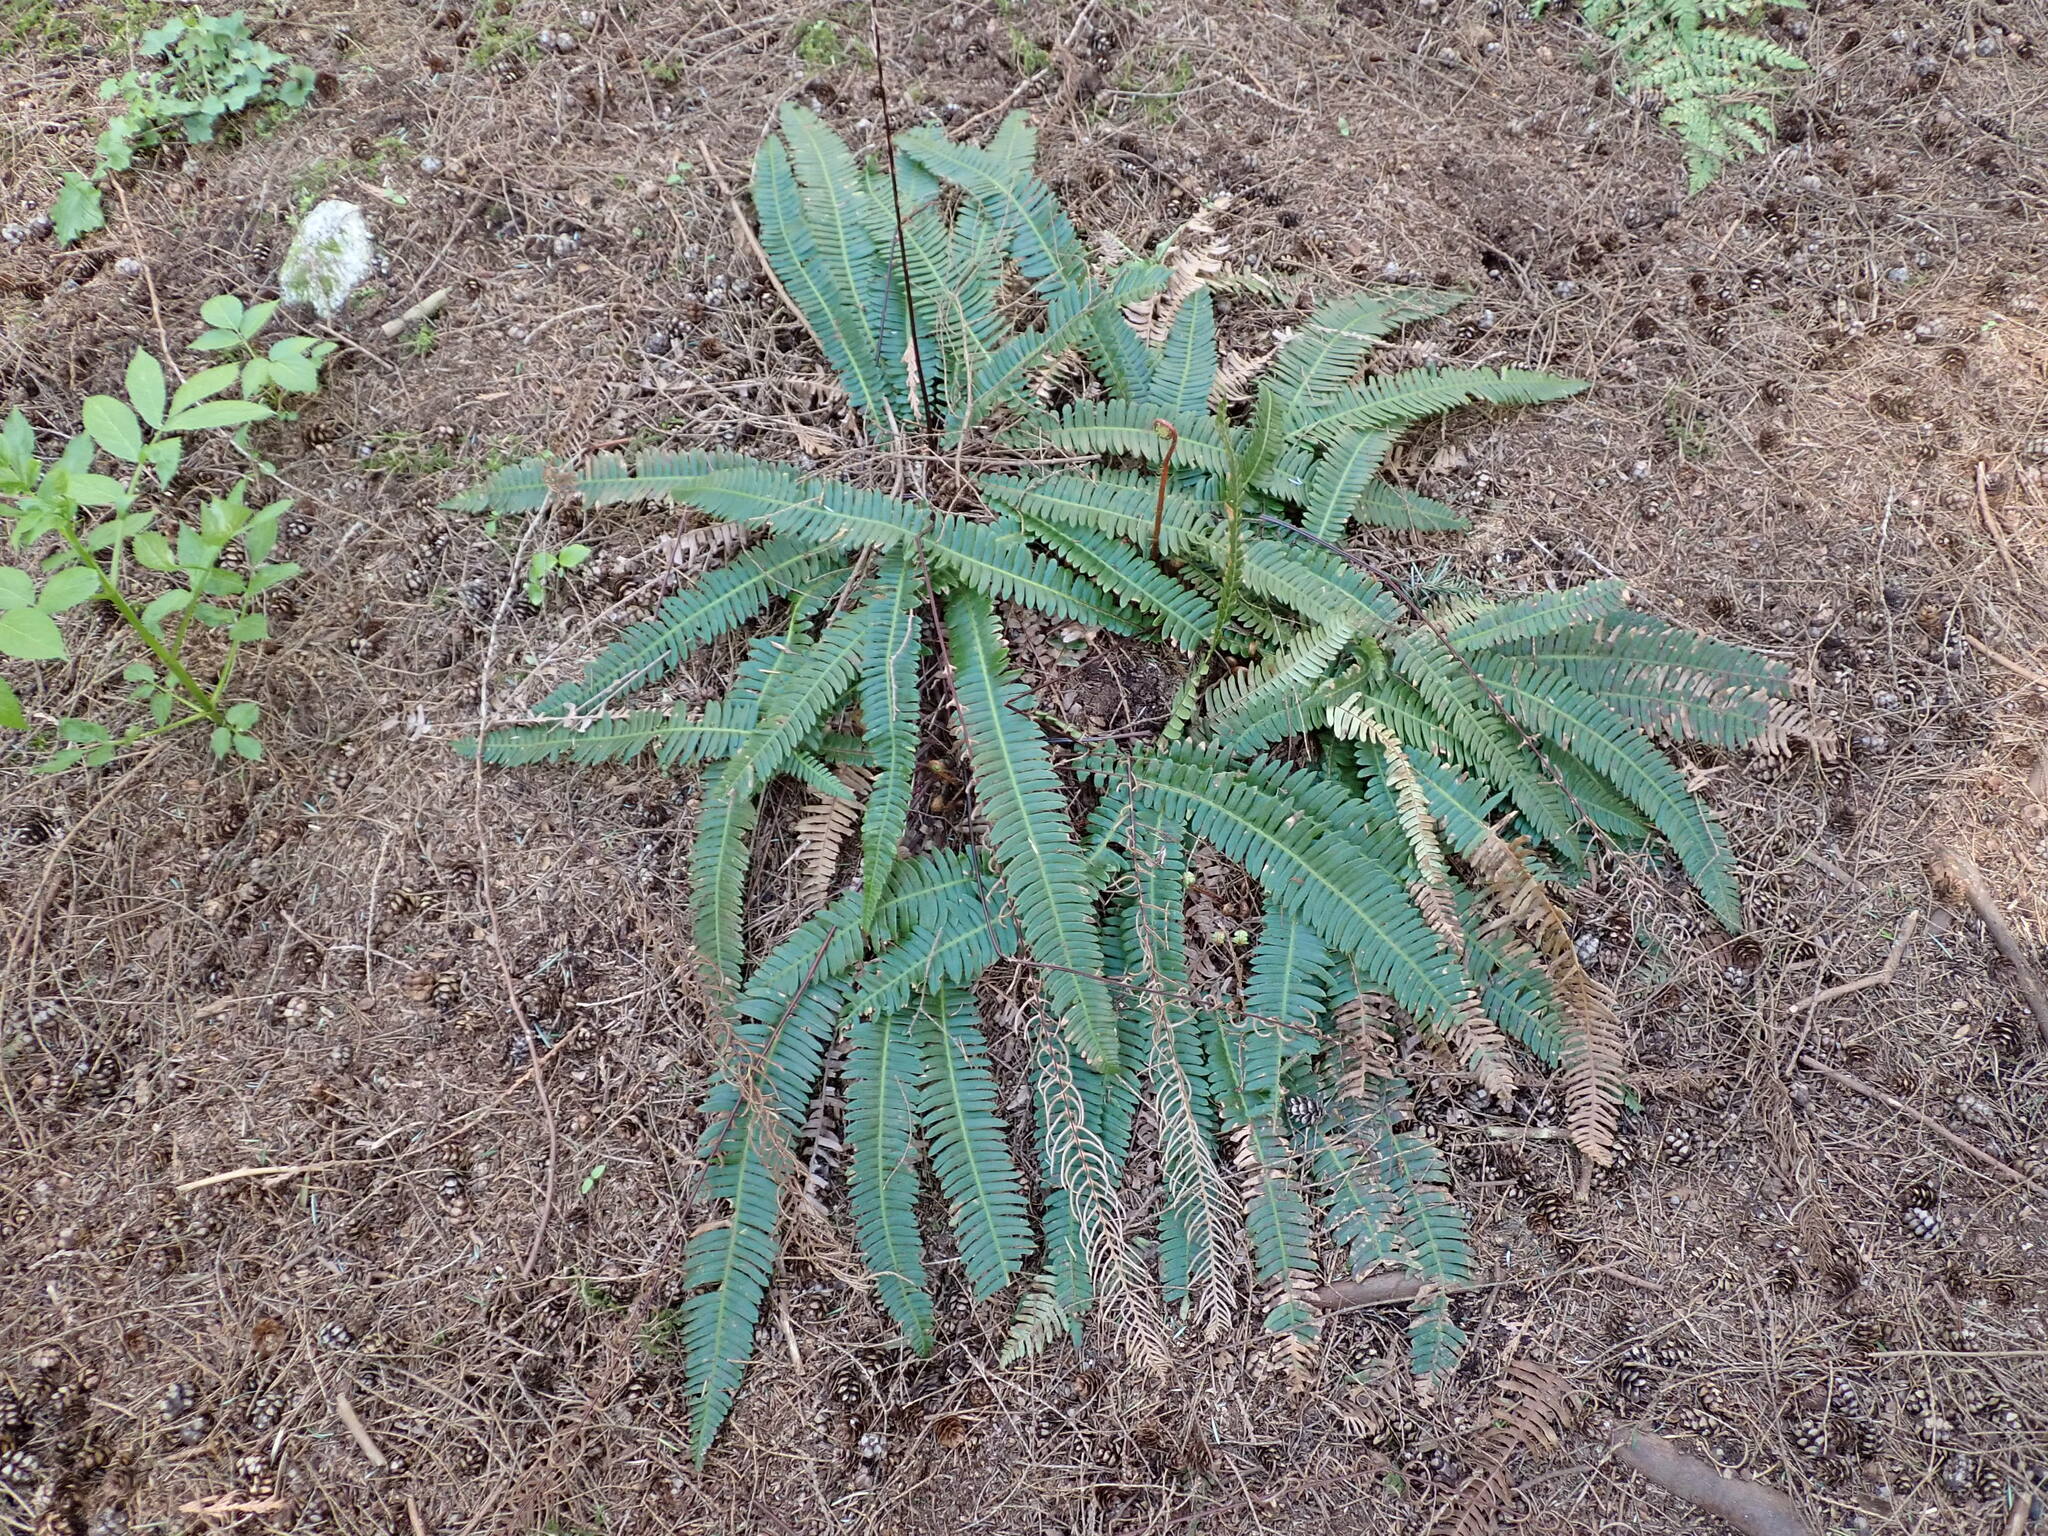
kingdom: Plantae
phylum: Tracheophyta
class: Polypodiopsida
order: Polypodiales
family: Blechnaceae
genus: Struthiopteris
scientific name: Struthiopteris spicant
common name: Deer fern
